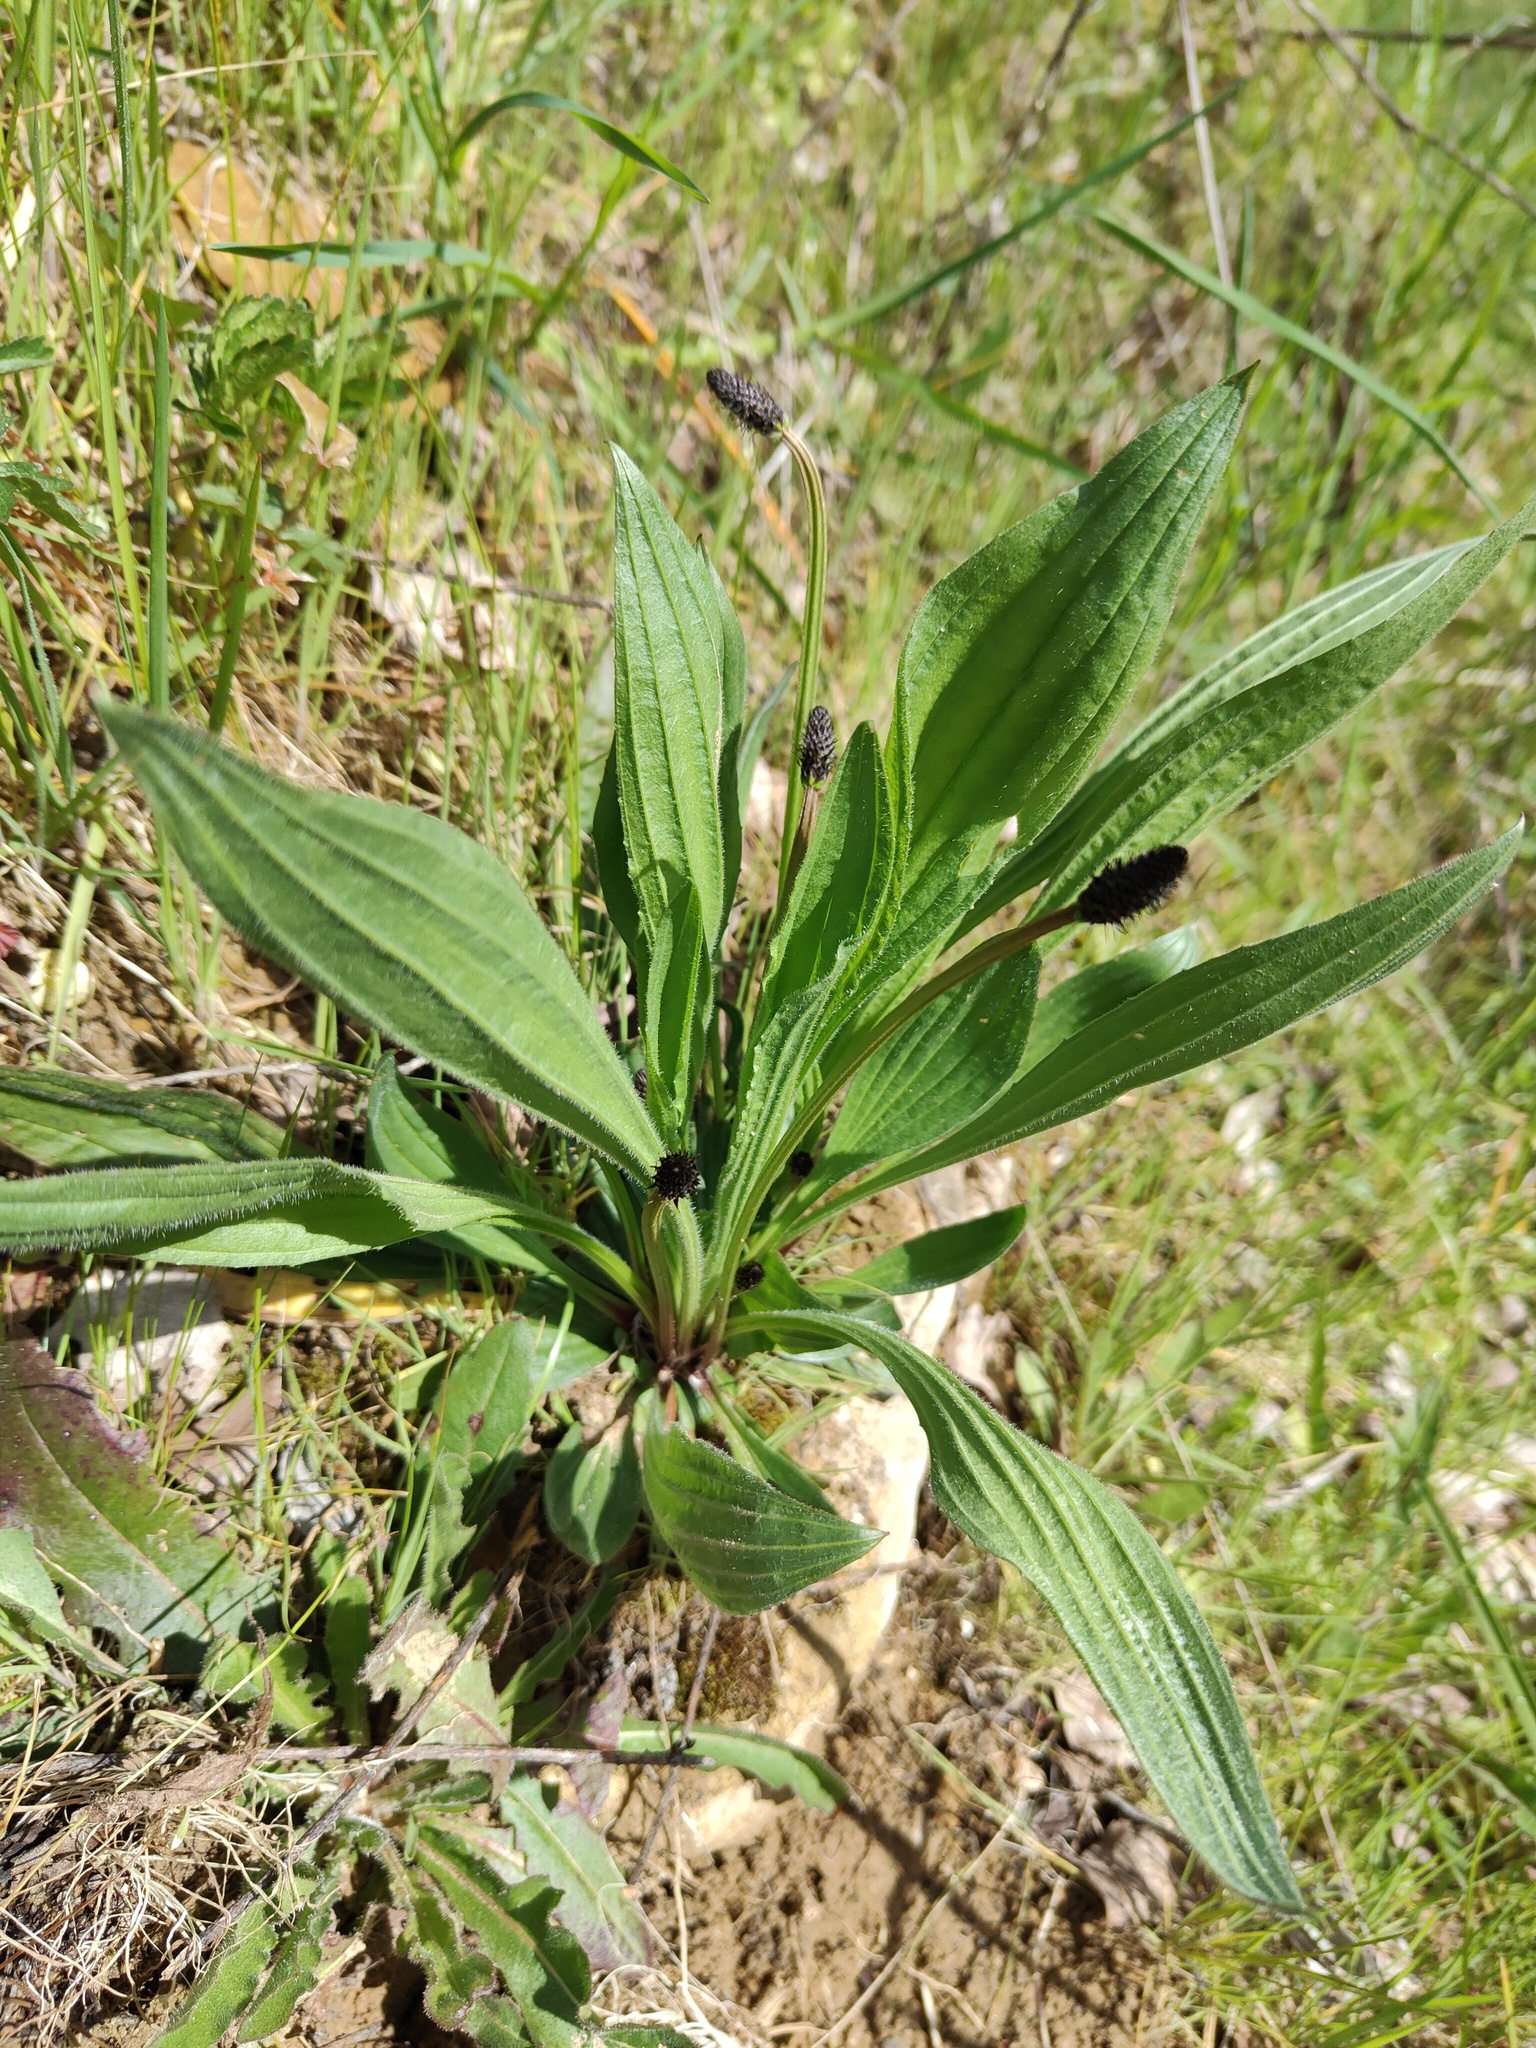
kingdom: Plantae
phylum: Tracheophyta
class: Magnoliopsida
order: Lamiales
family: Plantaginaceae
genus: Plantago
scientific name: Plantago lanceolata
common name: Ribwort plantain
